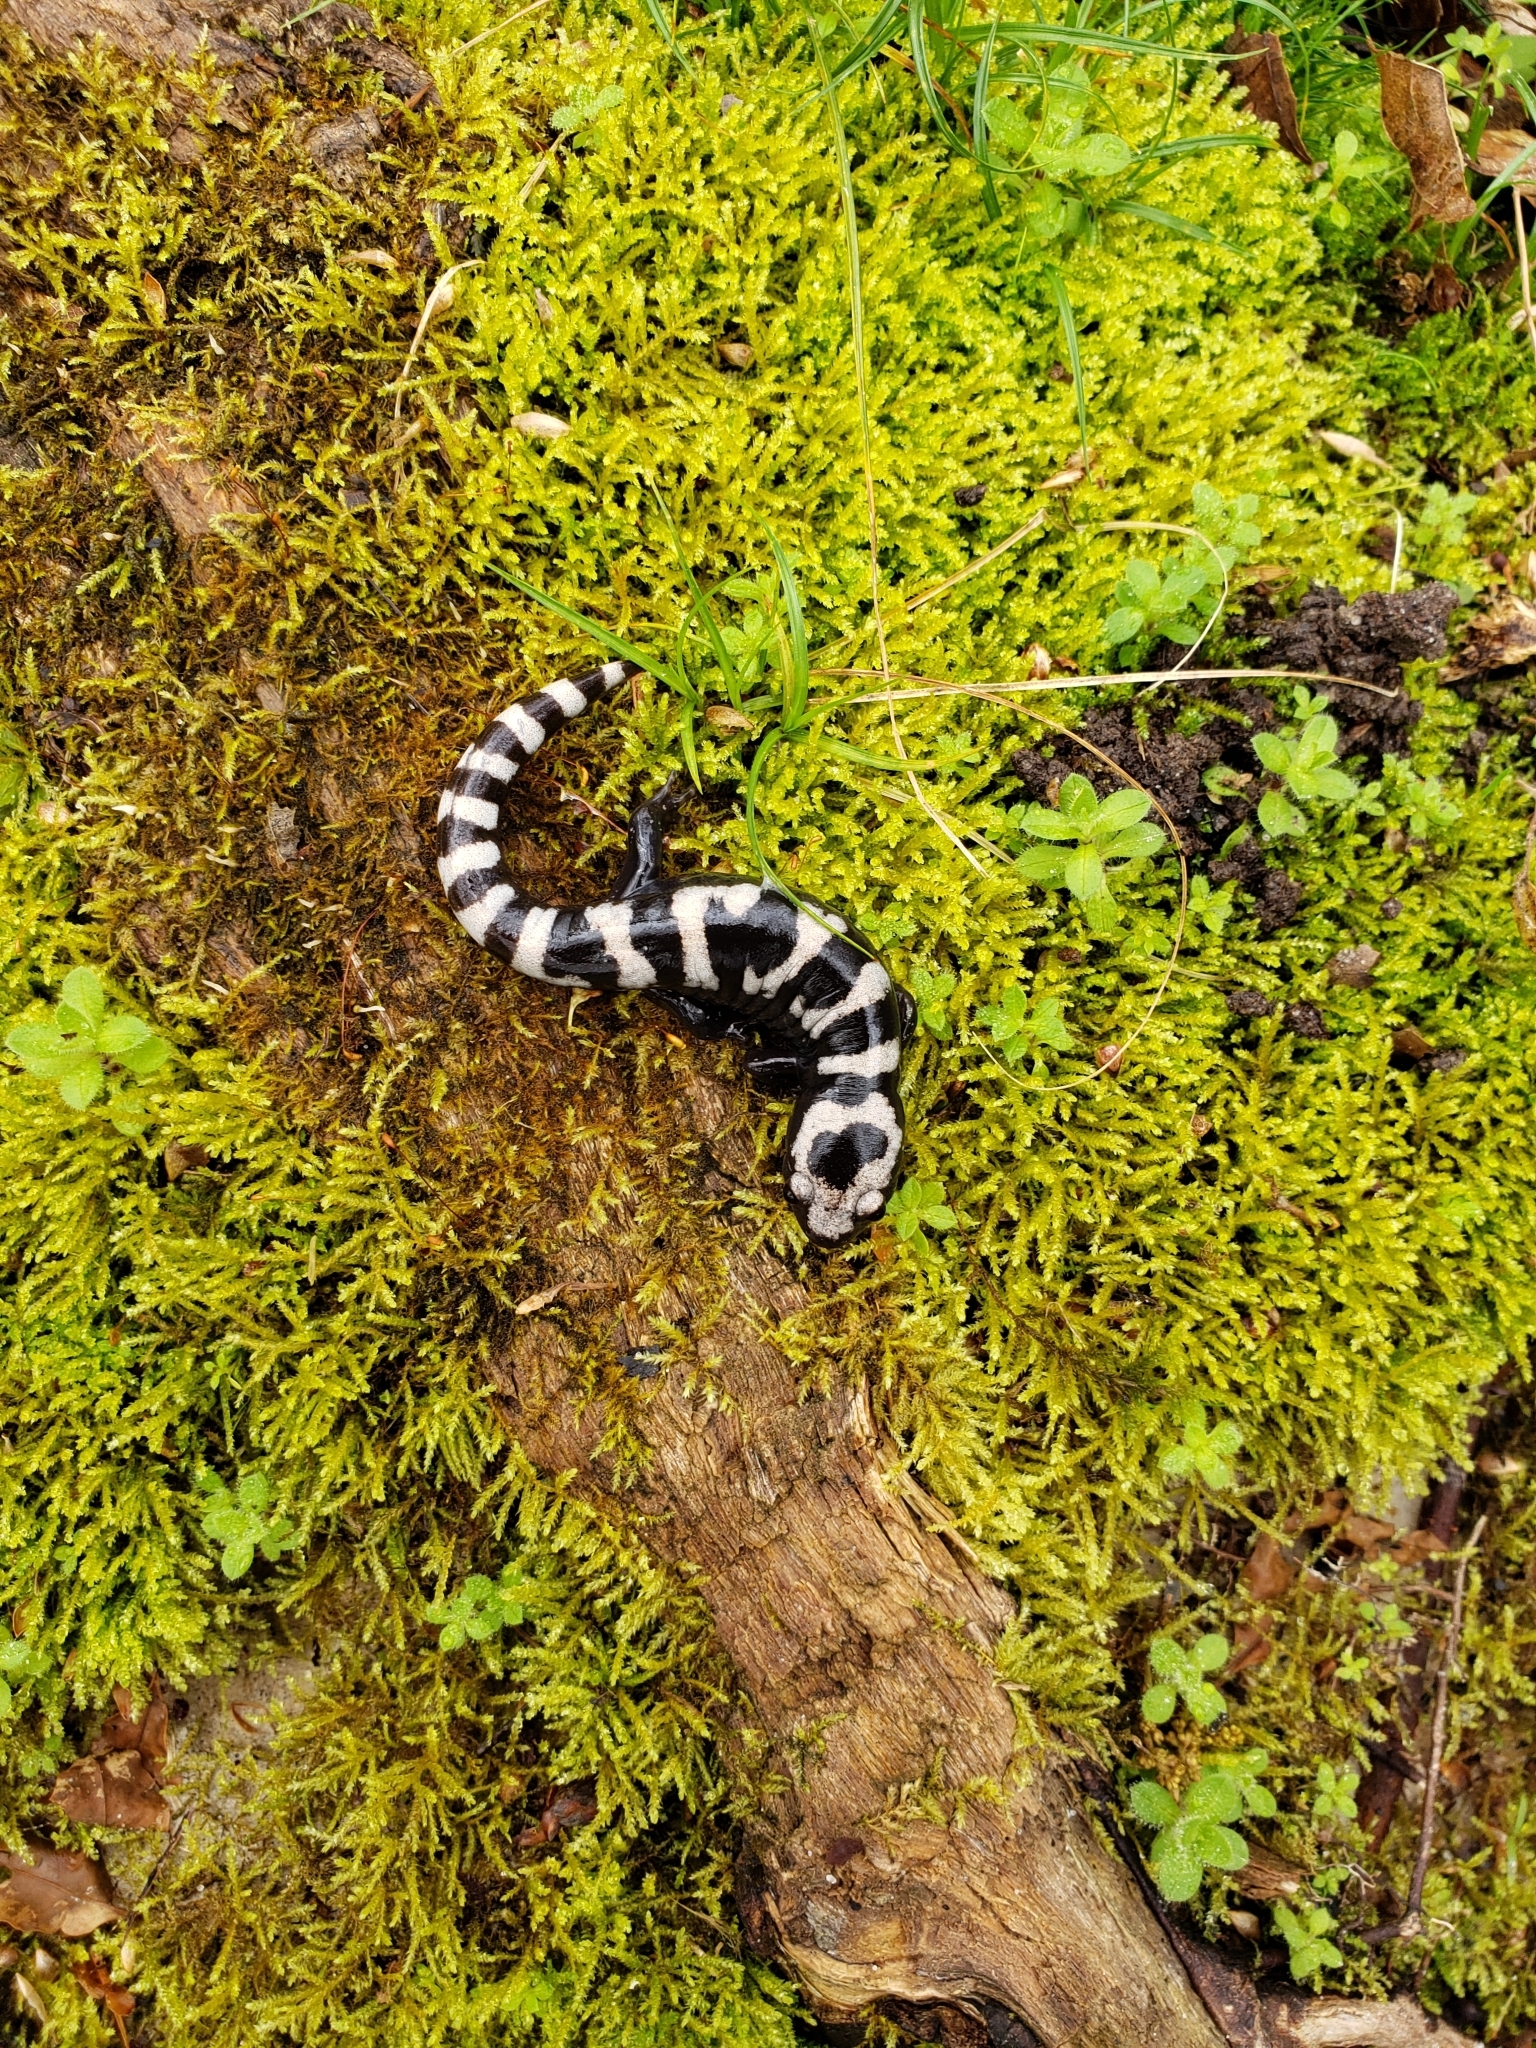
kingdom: Animalia
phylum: Chordata
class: Amphibia
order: Caudata
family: Ambystomatidae
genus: Ambystoma
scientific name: Ambystoma opacum
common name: Marbled salamander
